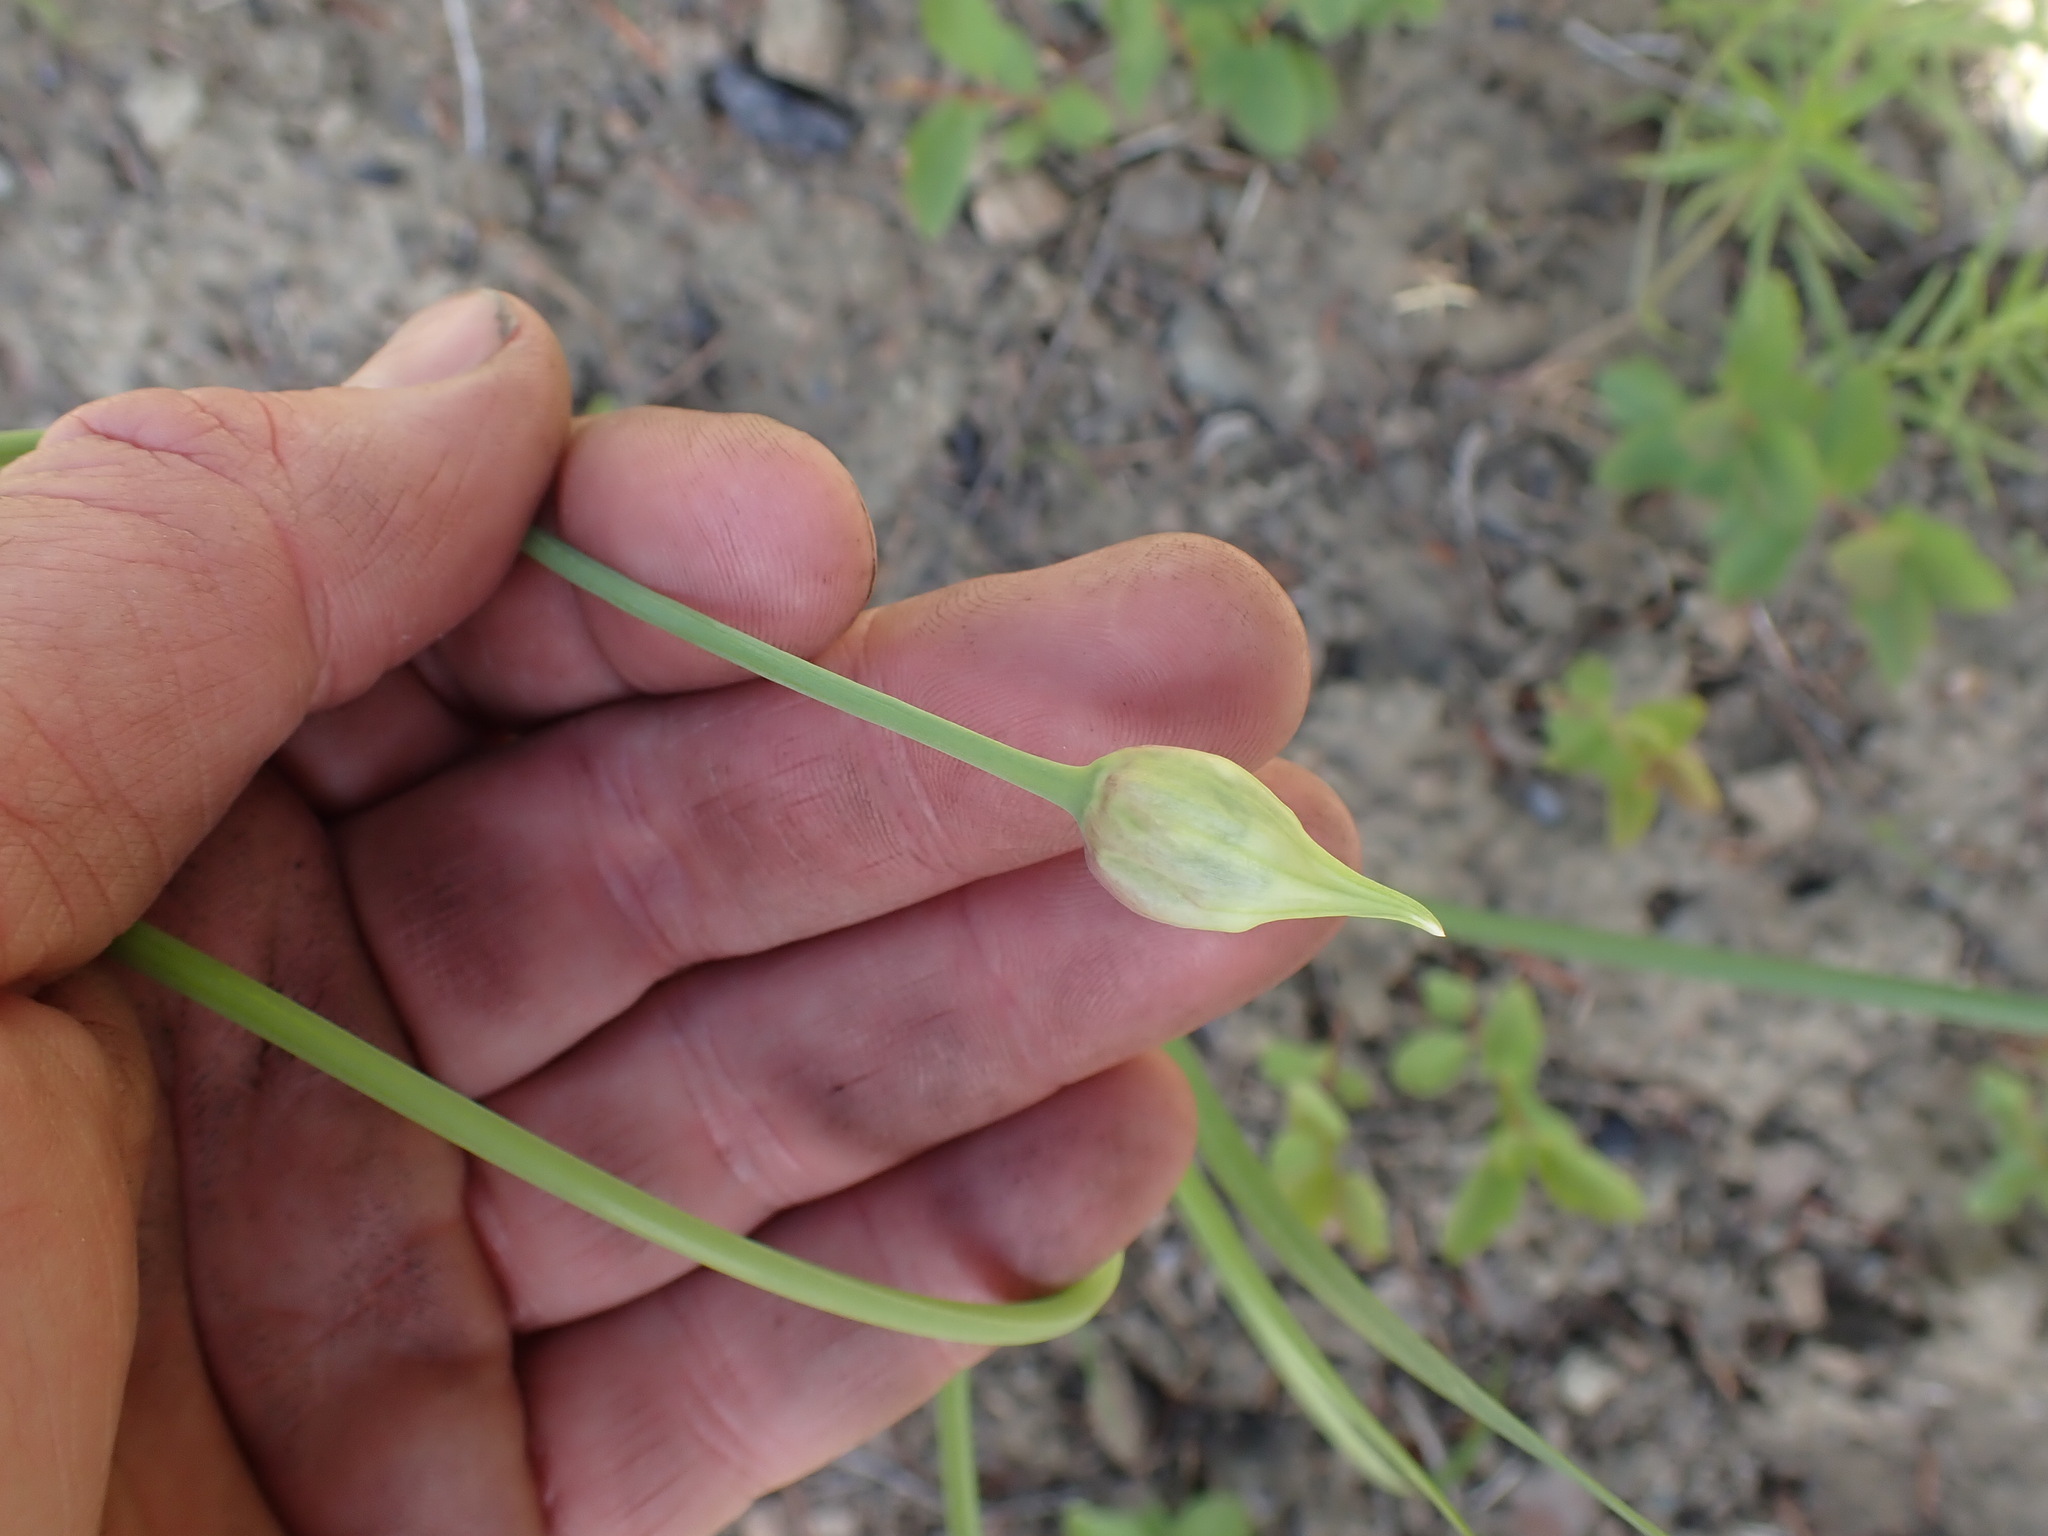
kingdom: Plantae
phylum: Tracheophyta
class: Liliopsida
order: Asparagales
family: Amaryllidaceae
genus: Allium
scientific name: Allium cernuum
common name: Nodding onion
